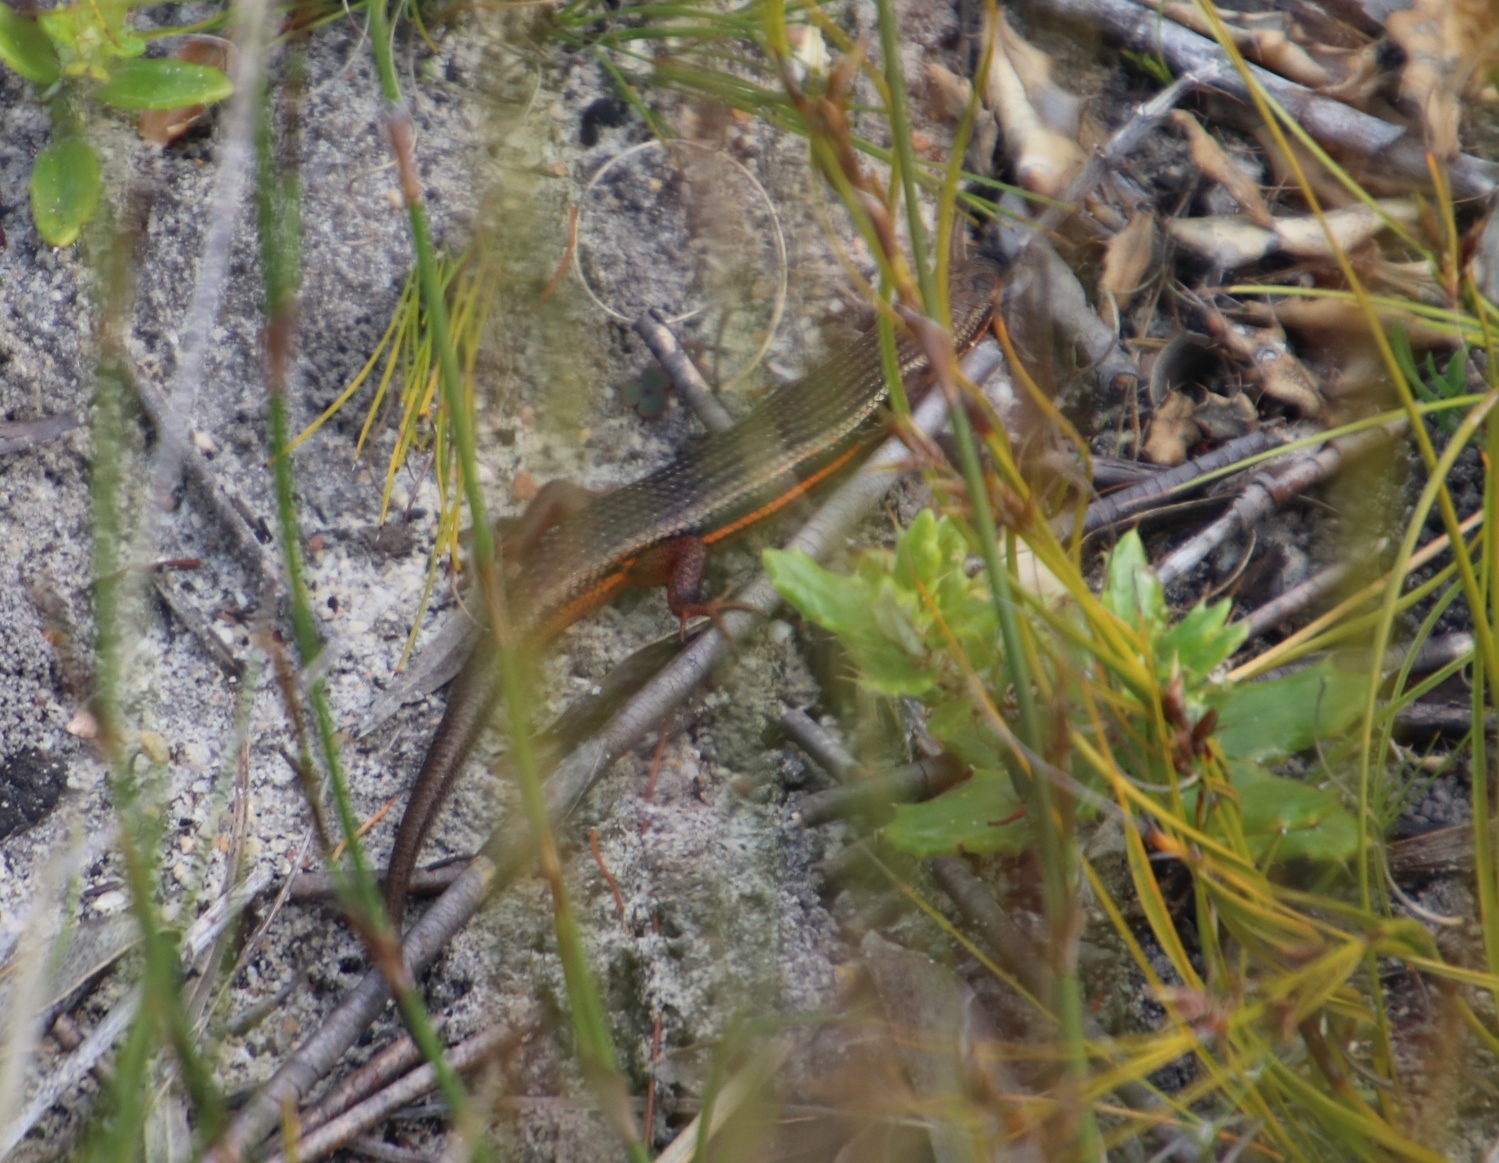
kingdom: Animalia
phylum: Chordata
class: Squamata
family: Scincidae
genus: Trachylepis
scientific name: Trachylepis homalocephala
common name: Red-sided skink
